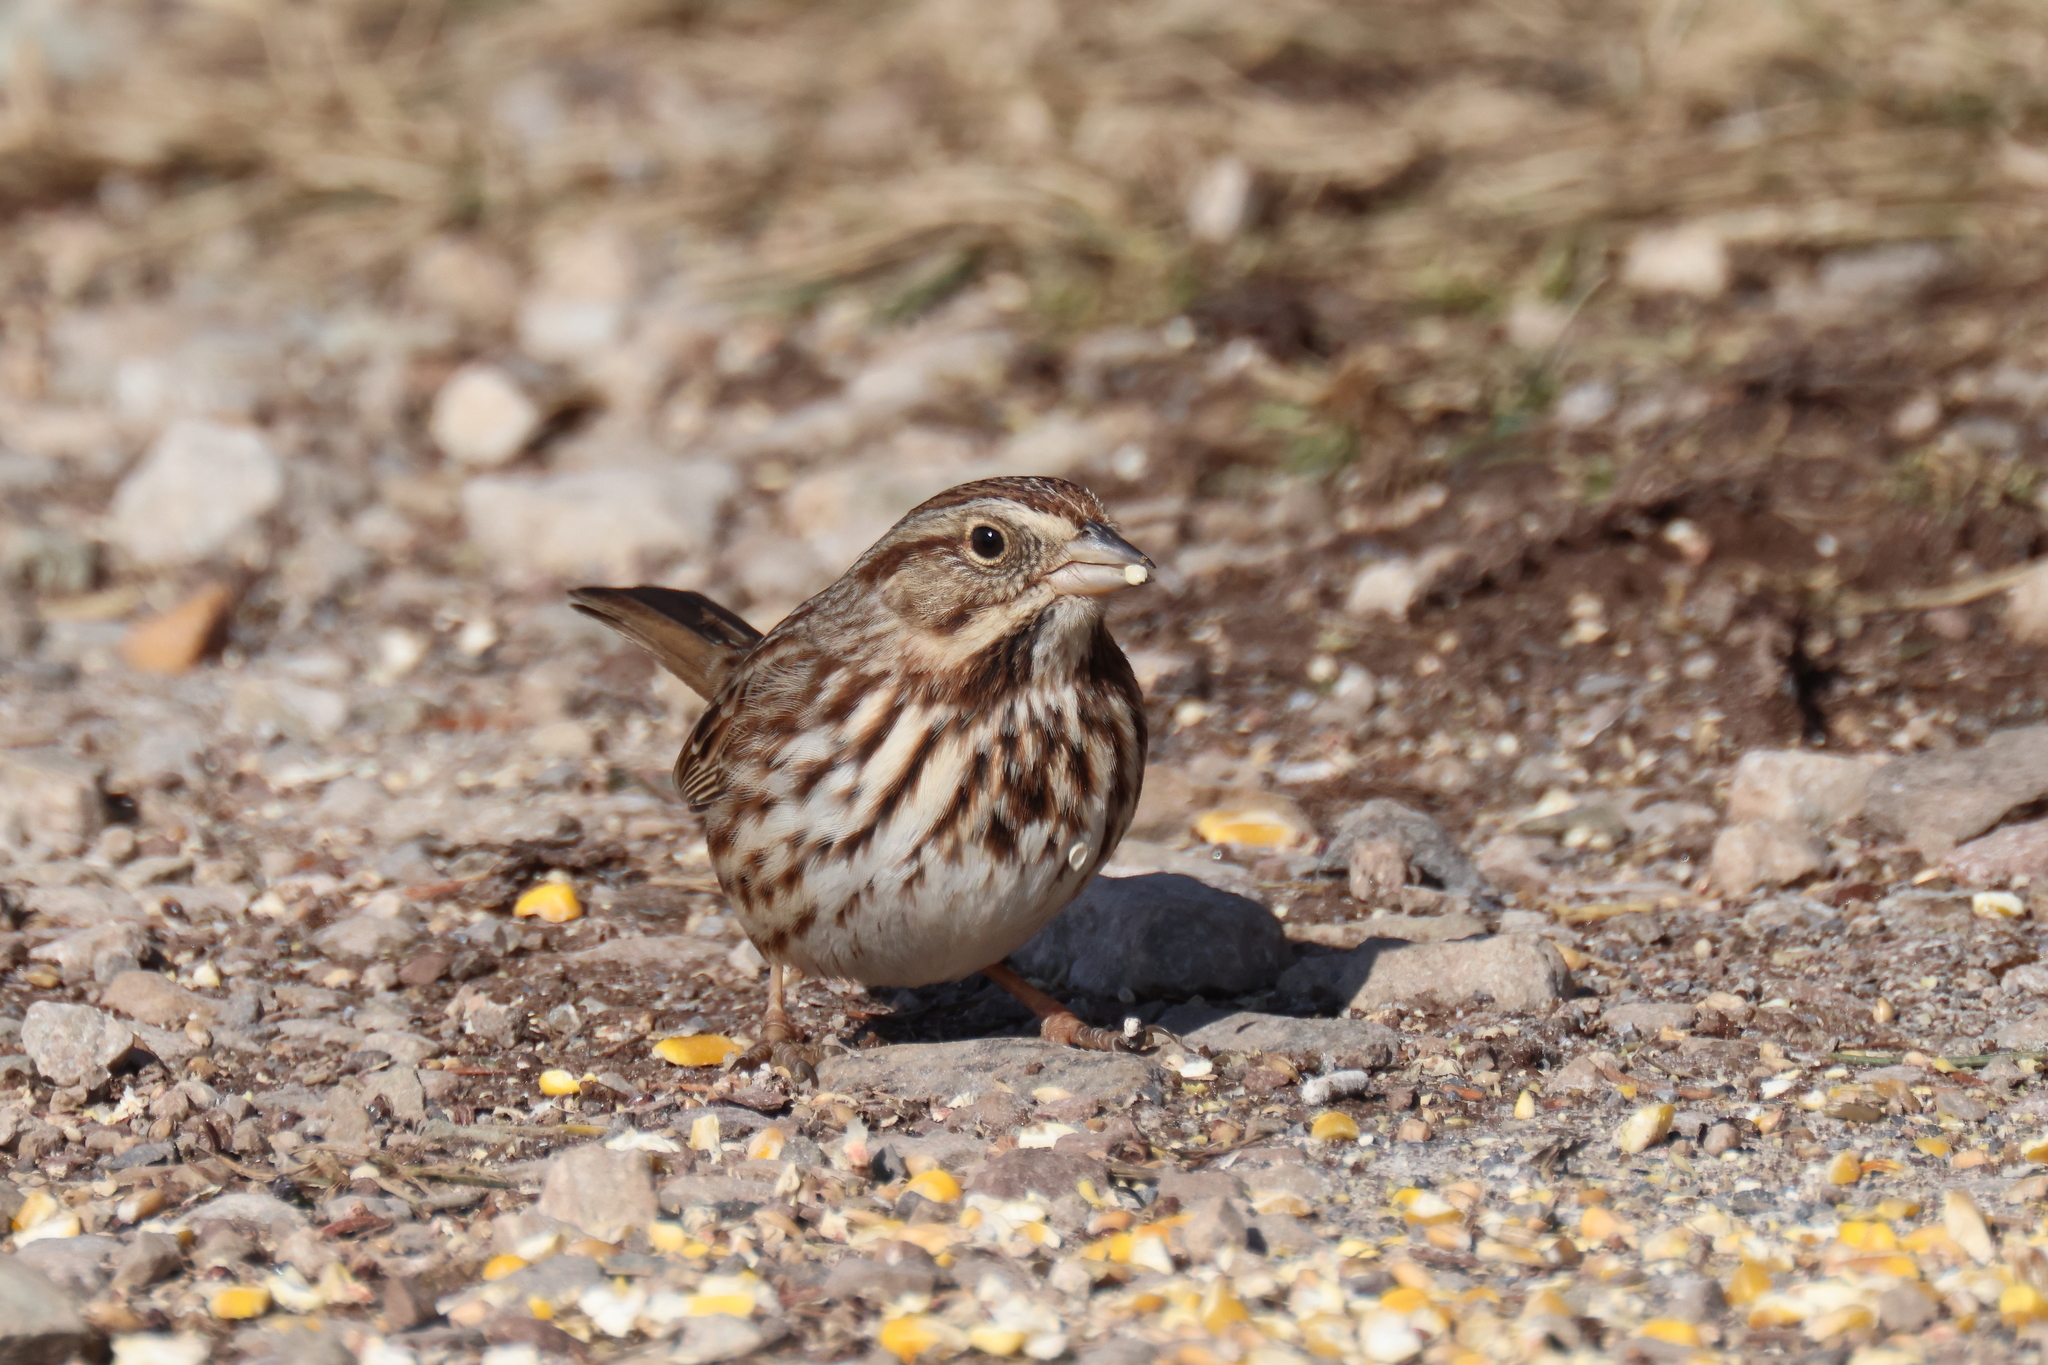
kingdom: Animalia
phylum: Chordata
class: Aves
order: Passeriformes
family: Passerellidae
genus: Melospiza
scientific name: Melospiza melodia
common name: Song sparrow
